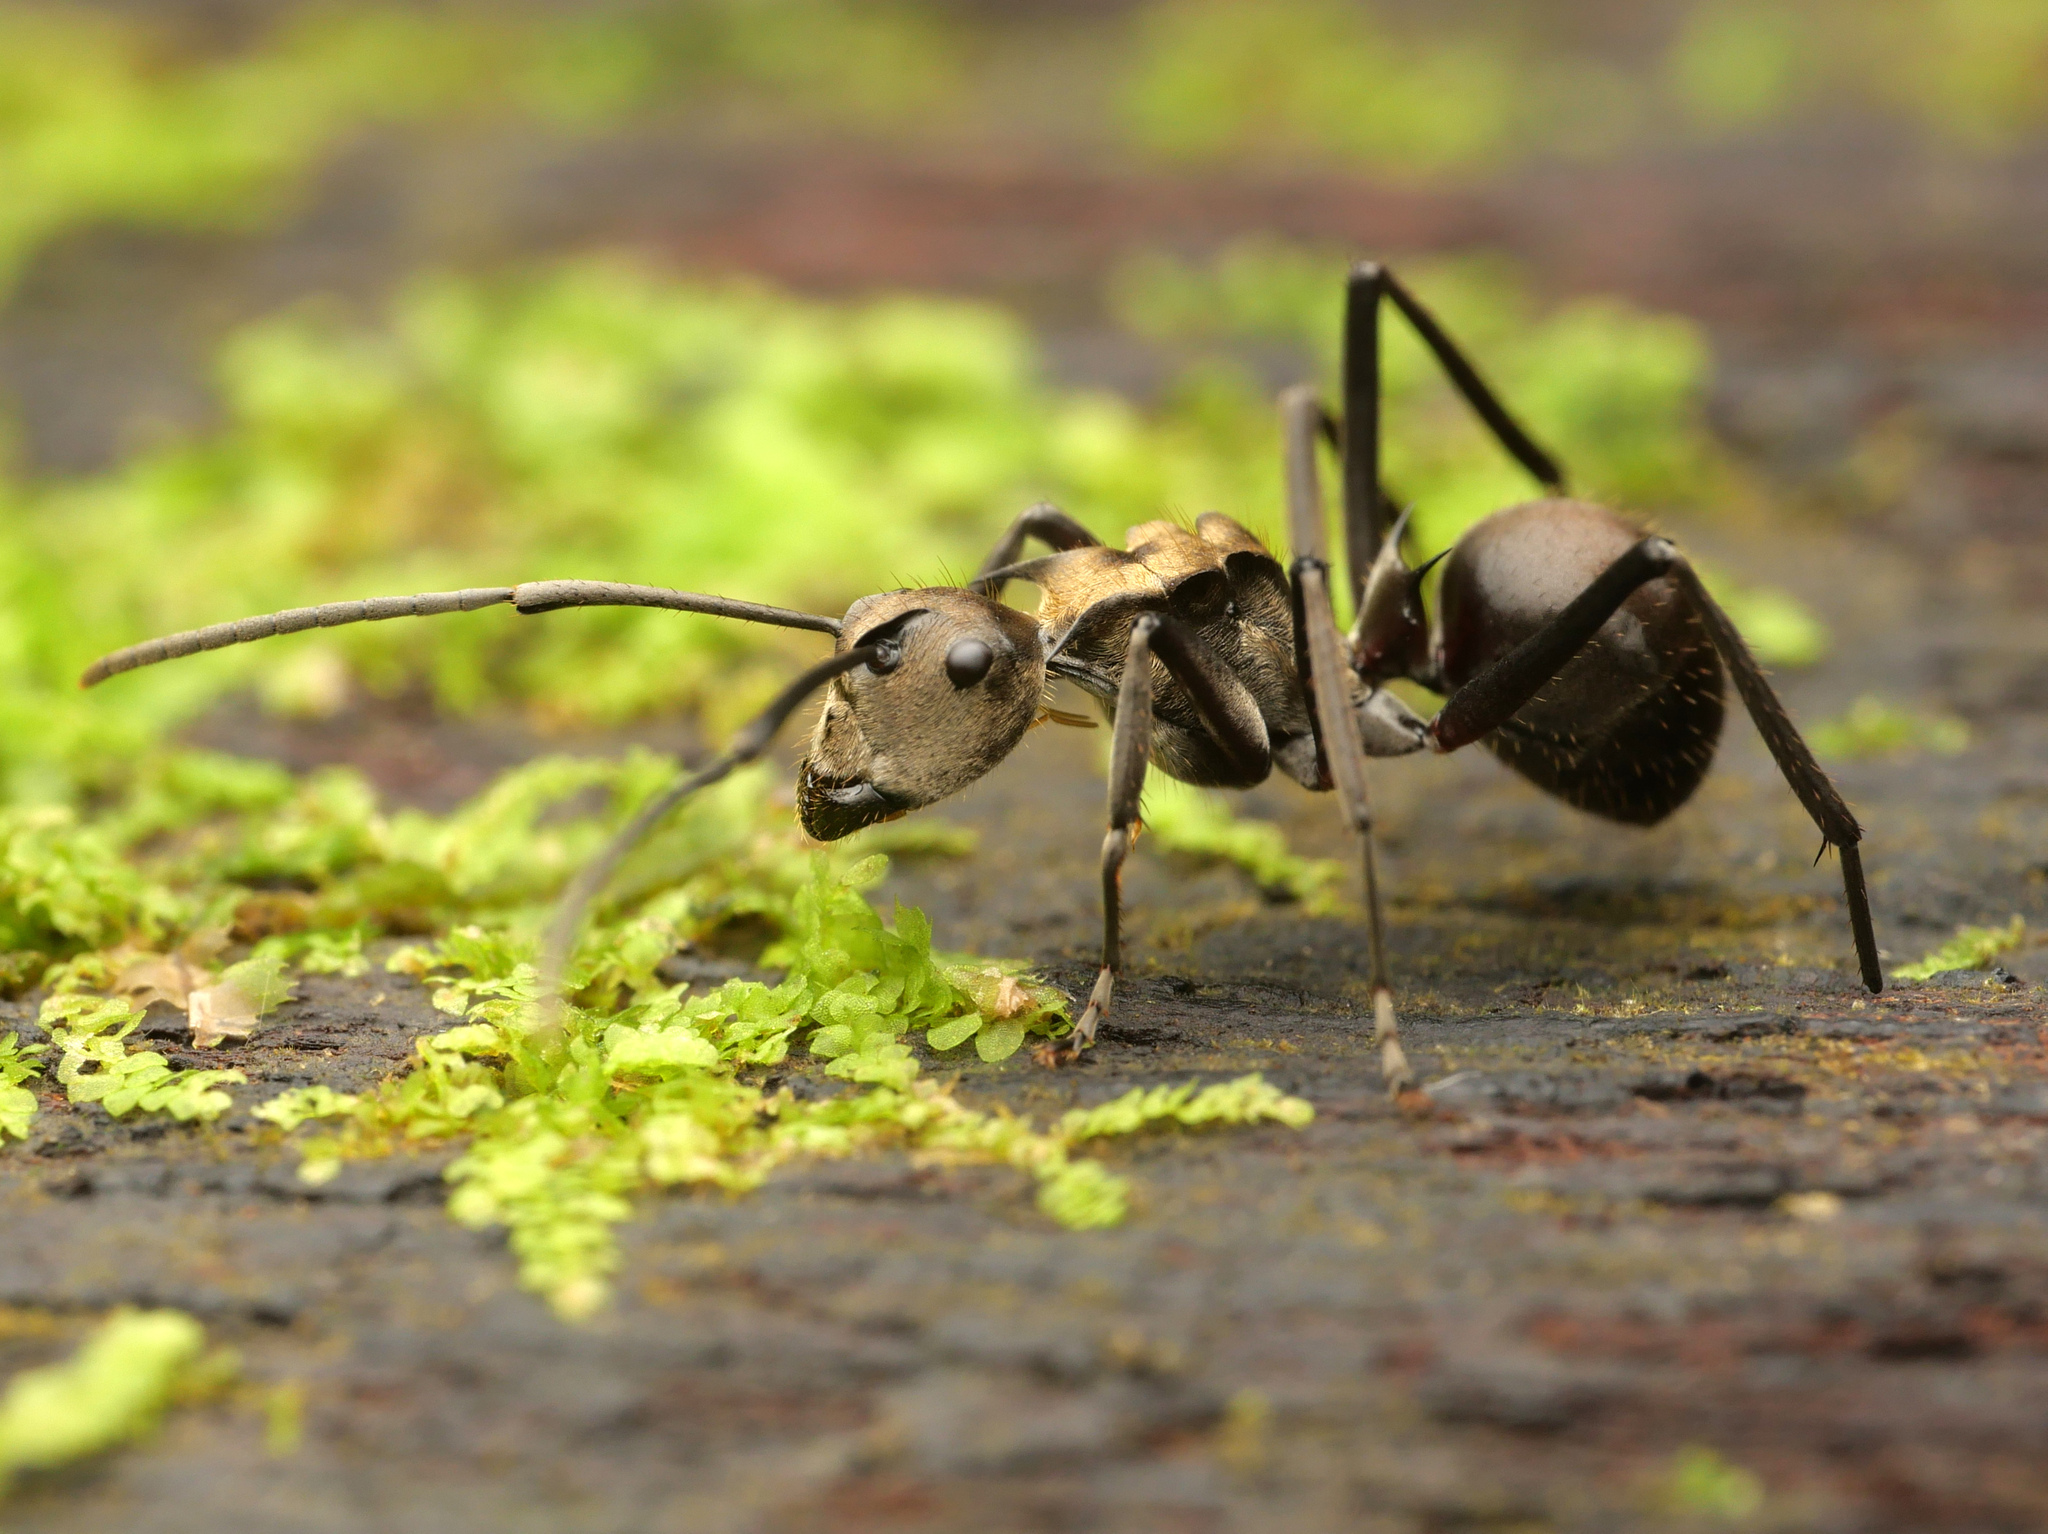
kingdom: Animalia
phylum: Arthropoda
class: Insecta
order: Hymenoptera
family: Formicidae
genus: Polyrhachis
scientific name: Polyrhachis sericata
